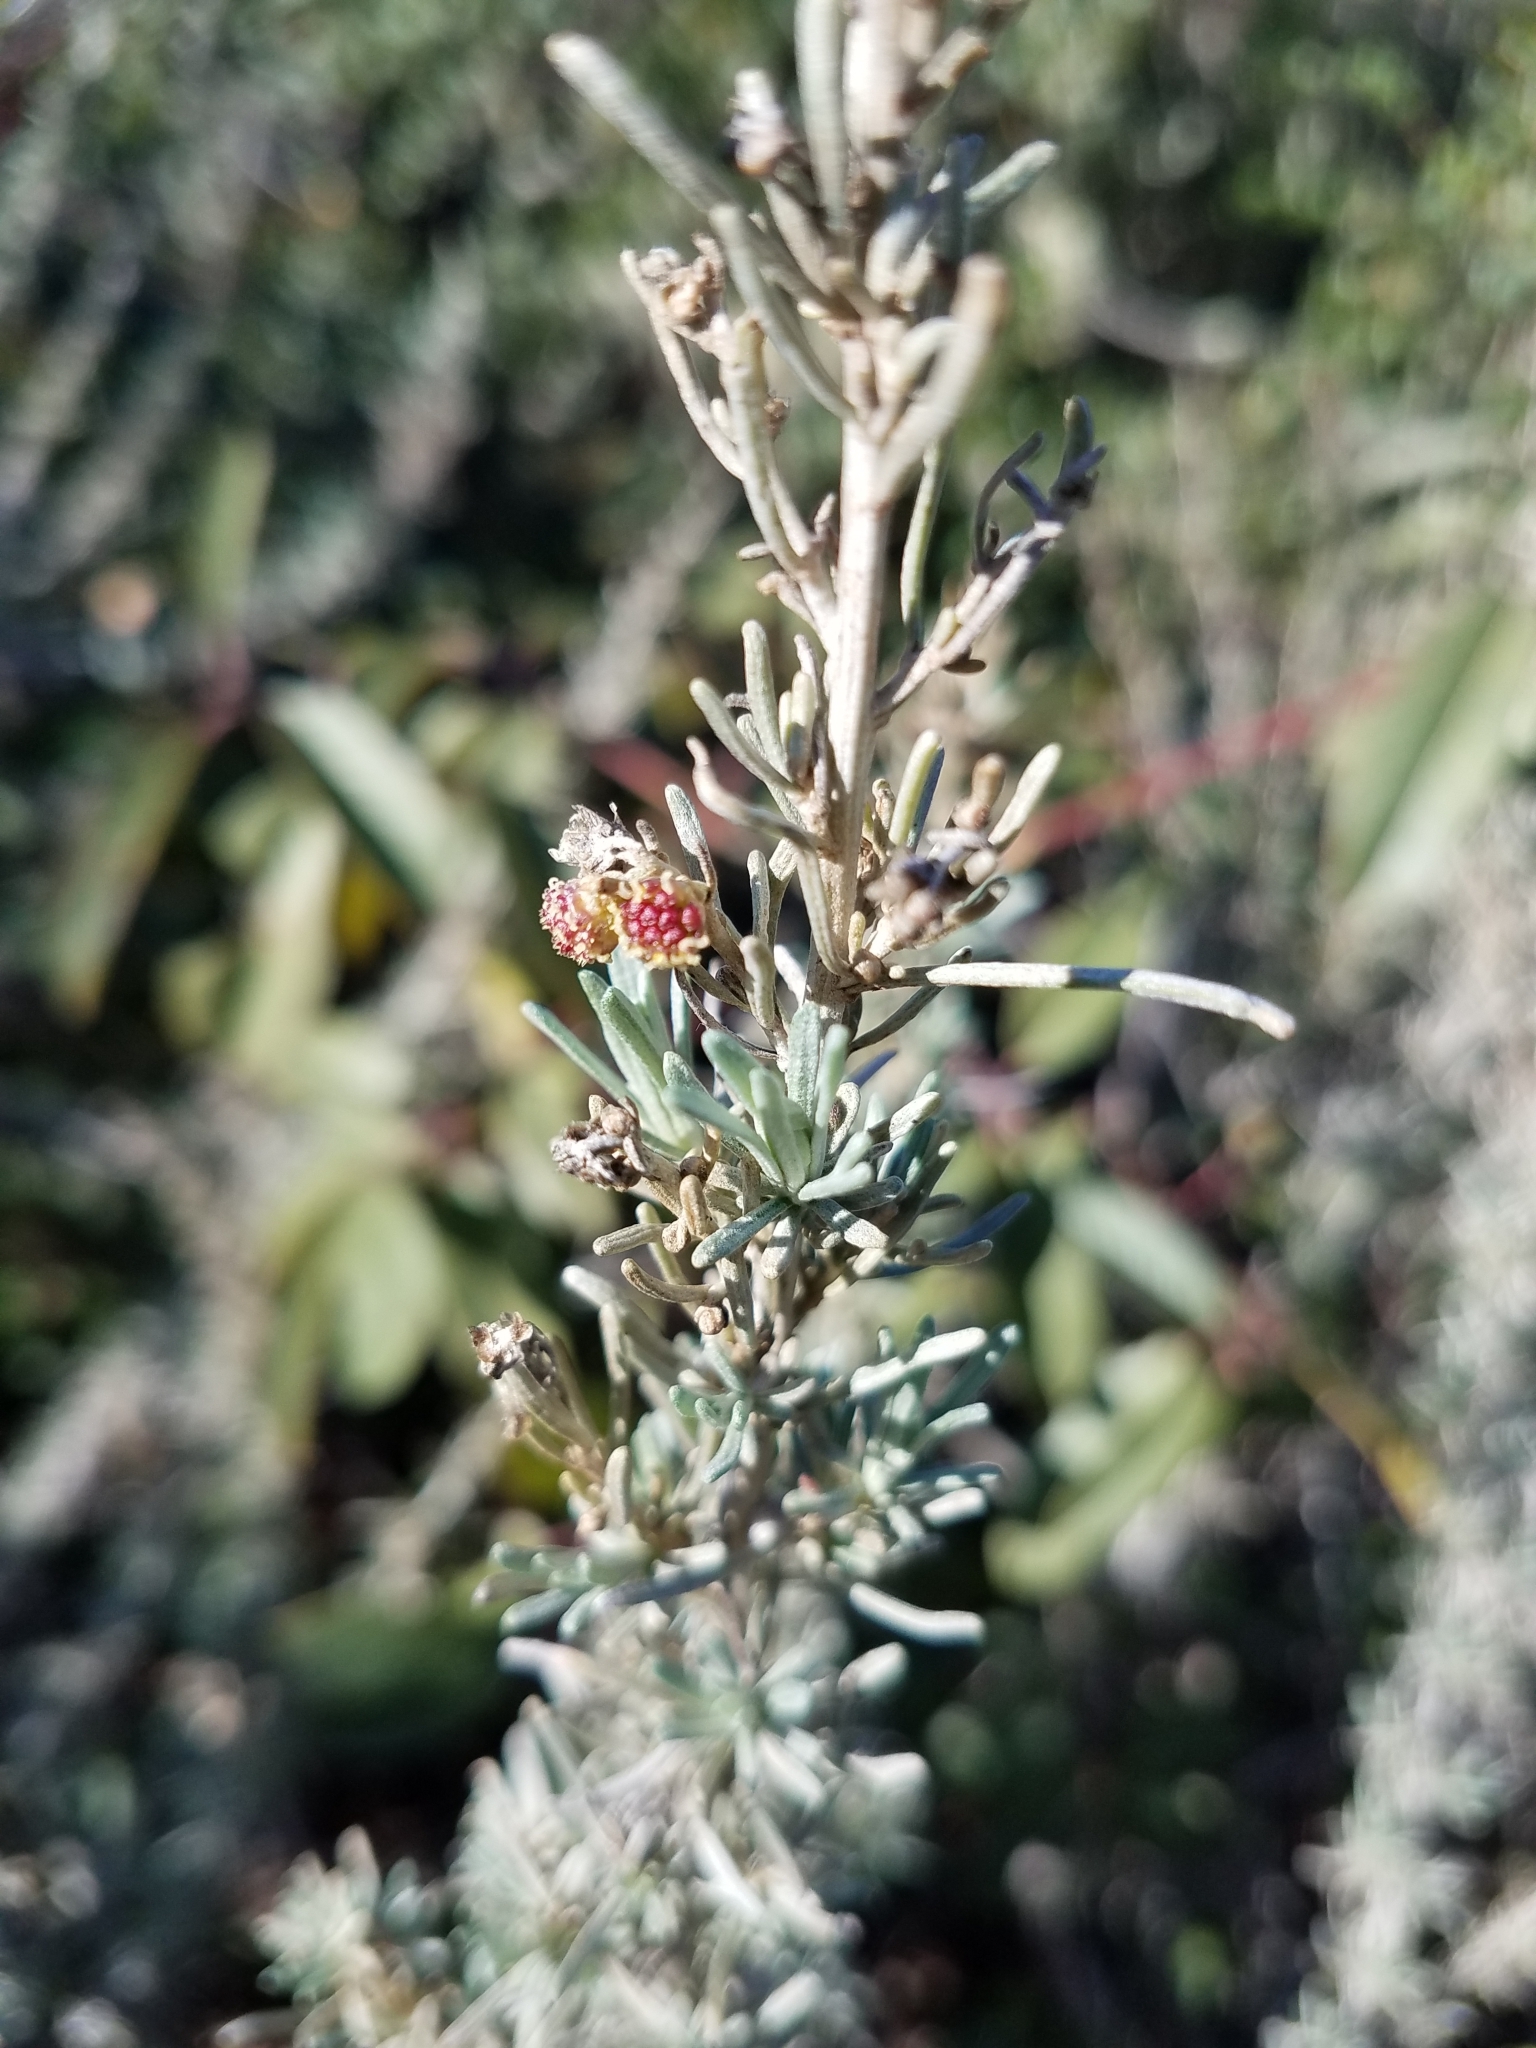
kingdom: Plantae
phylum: Tracheophyta
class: Magnoliopsida
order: Asterales
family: Asteraceae
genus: Artemisia
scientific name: Artemisia californica
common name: California sagebrush
